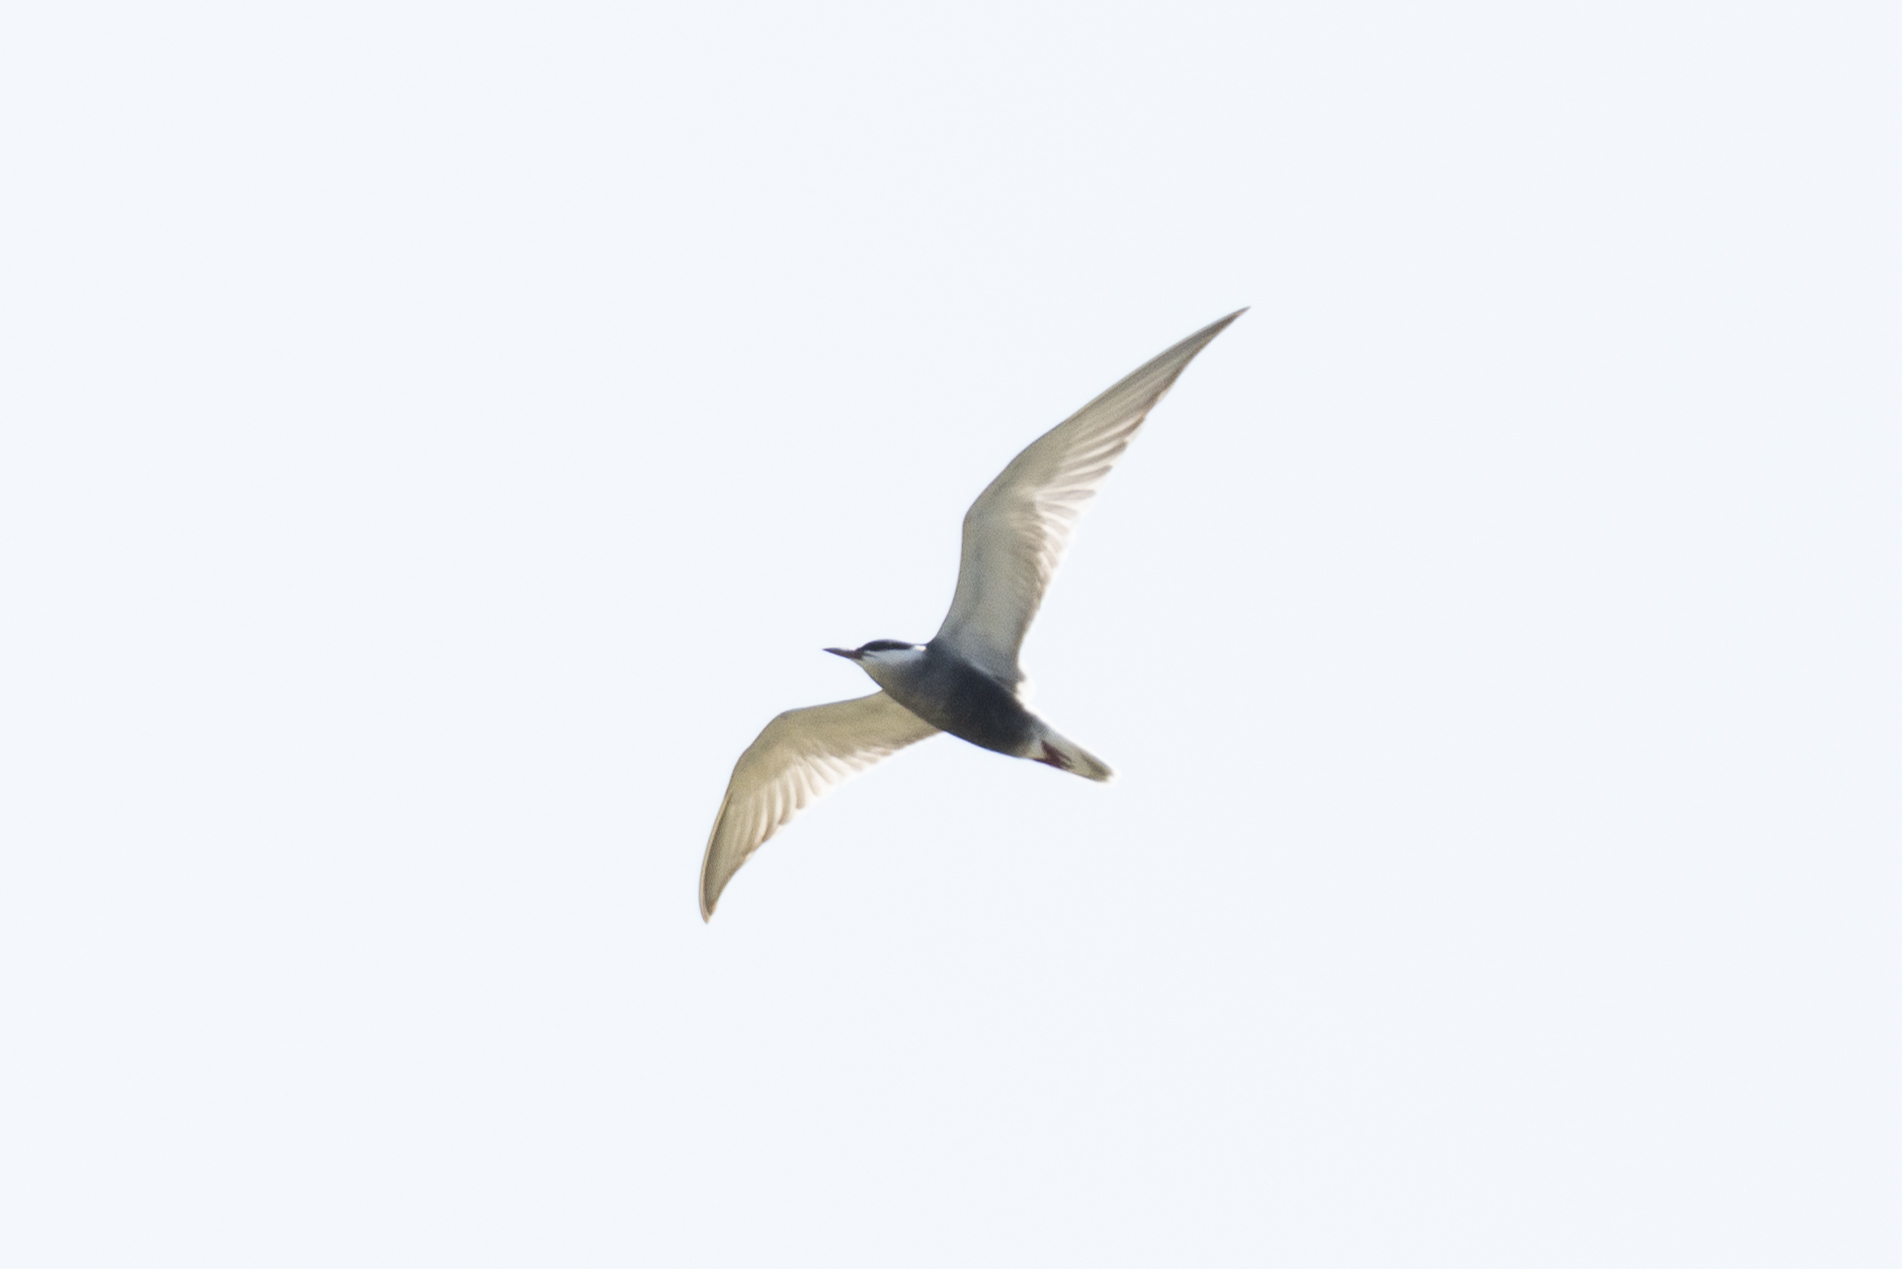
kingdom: Animalia
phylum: Chordata
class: Aves
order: Charadriiformes
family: Laridae
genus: Chlidonias
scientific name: Chlidonias hybrida
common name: Whiskered tern
